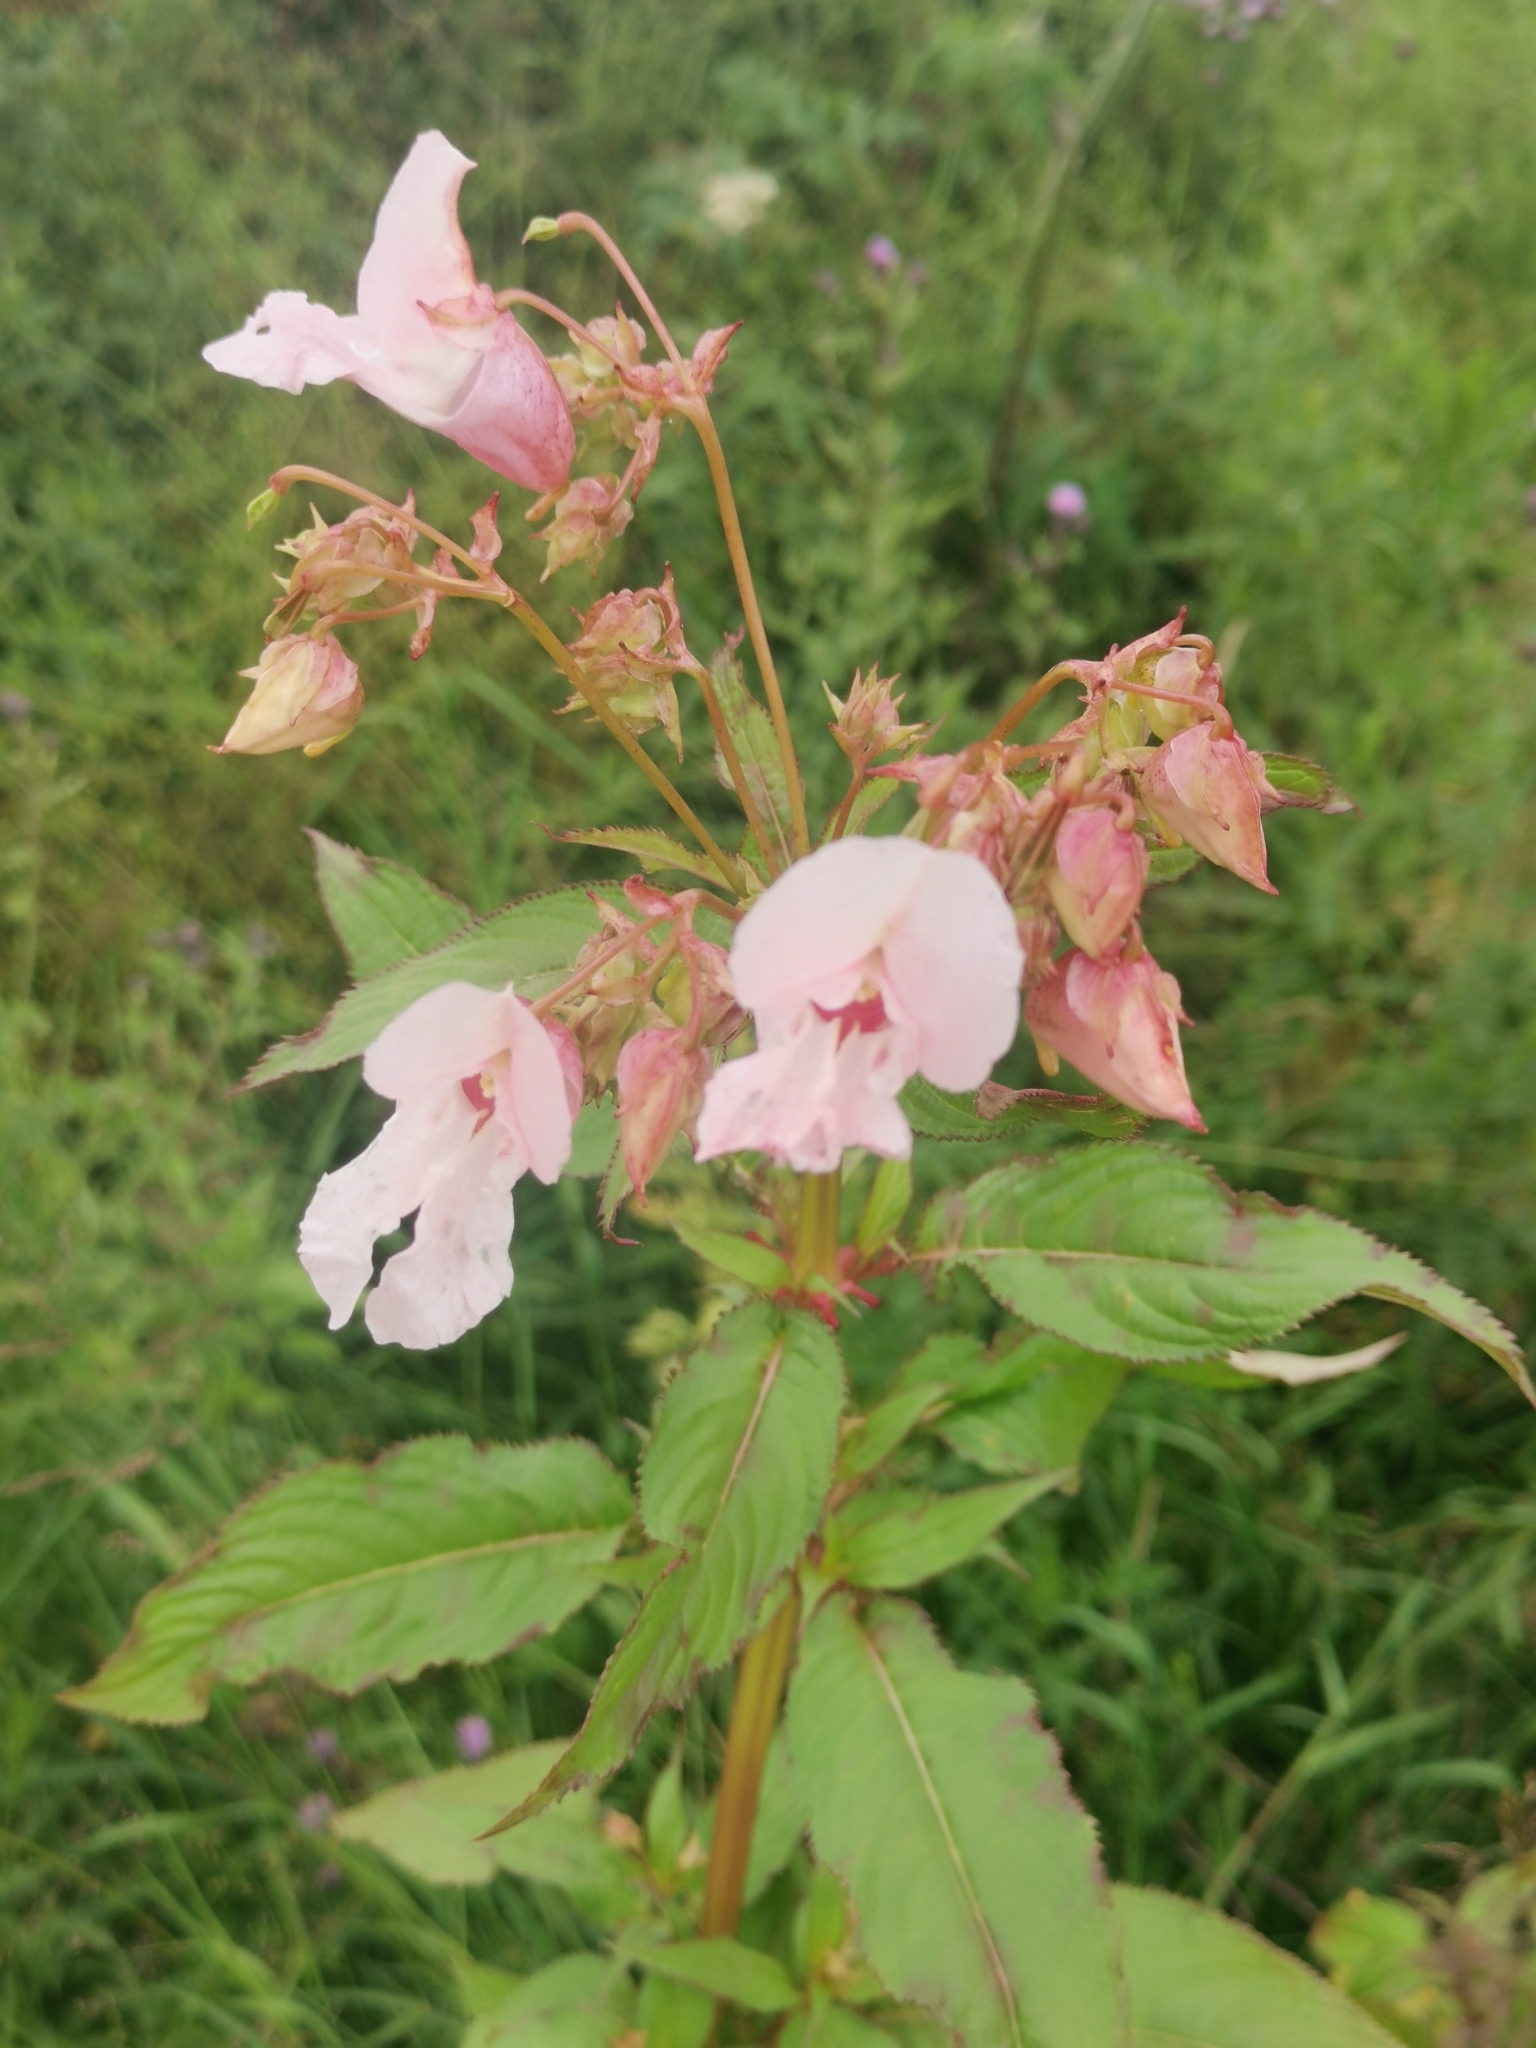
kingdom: Plantae
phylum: Tracheophyta
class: Magnoliopsida
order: Ericales
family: Balsaminaceae
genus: Impatiens
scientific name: Impatiens glandulifera
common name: Himalayan balsam
